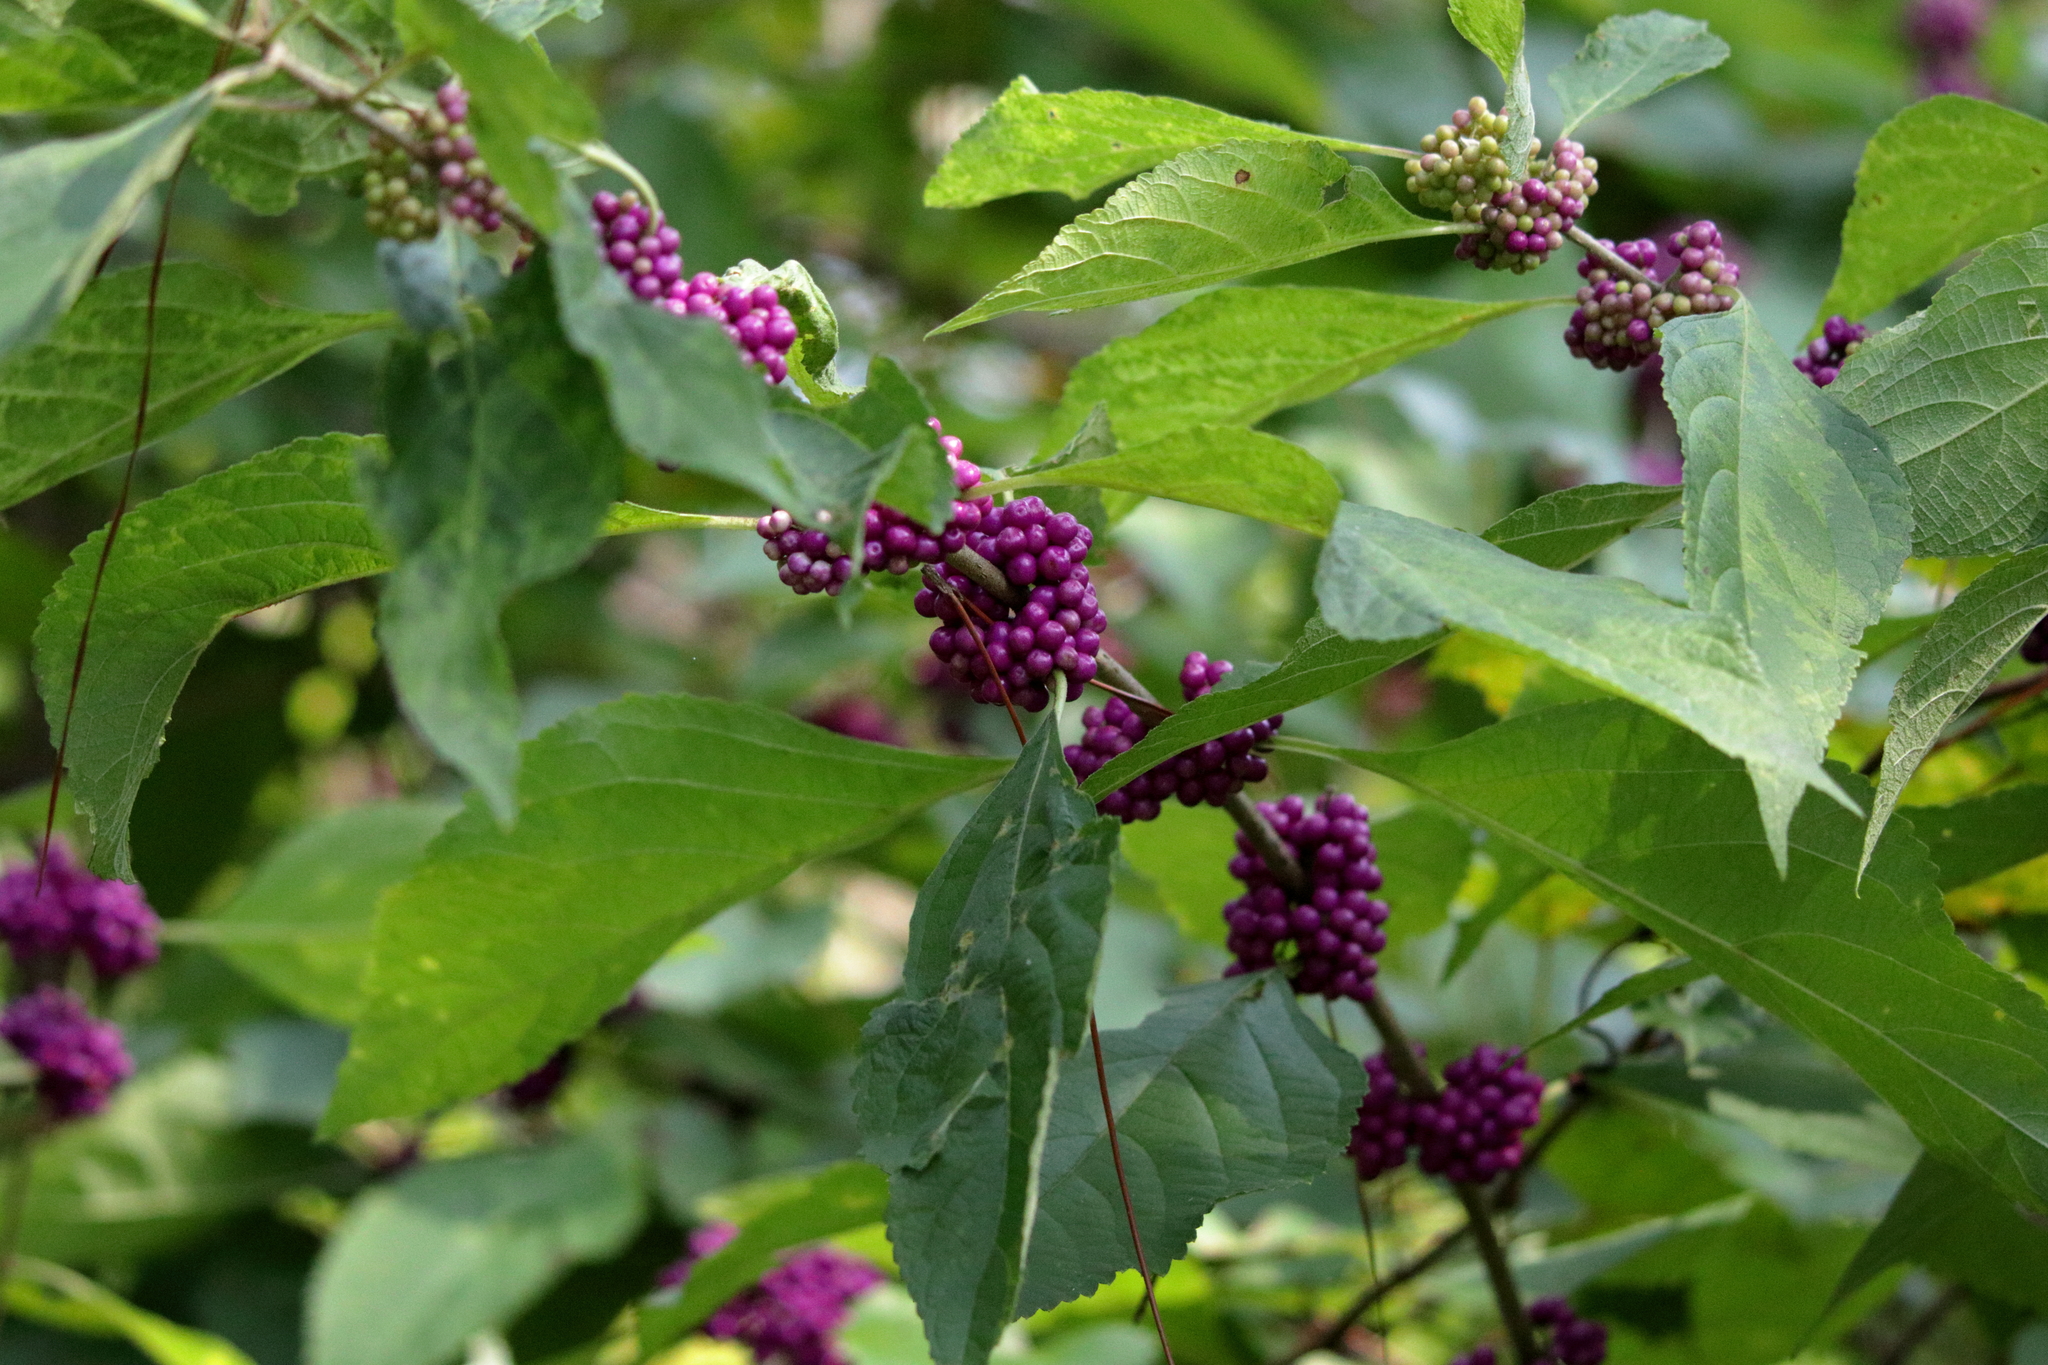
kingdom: Plantae
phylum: Tracheophyta
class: Magnoliopsida
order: Lamiales
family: Lamiaceae
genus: Callicarpa
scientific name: Callicarpa americana
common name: American beautyberry
